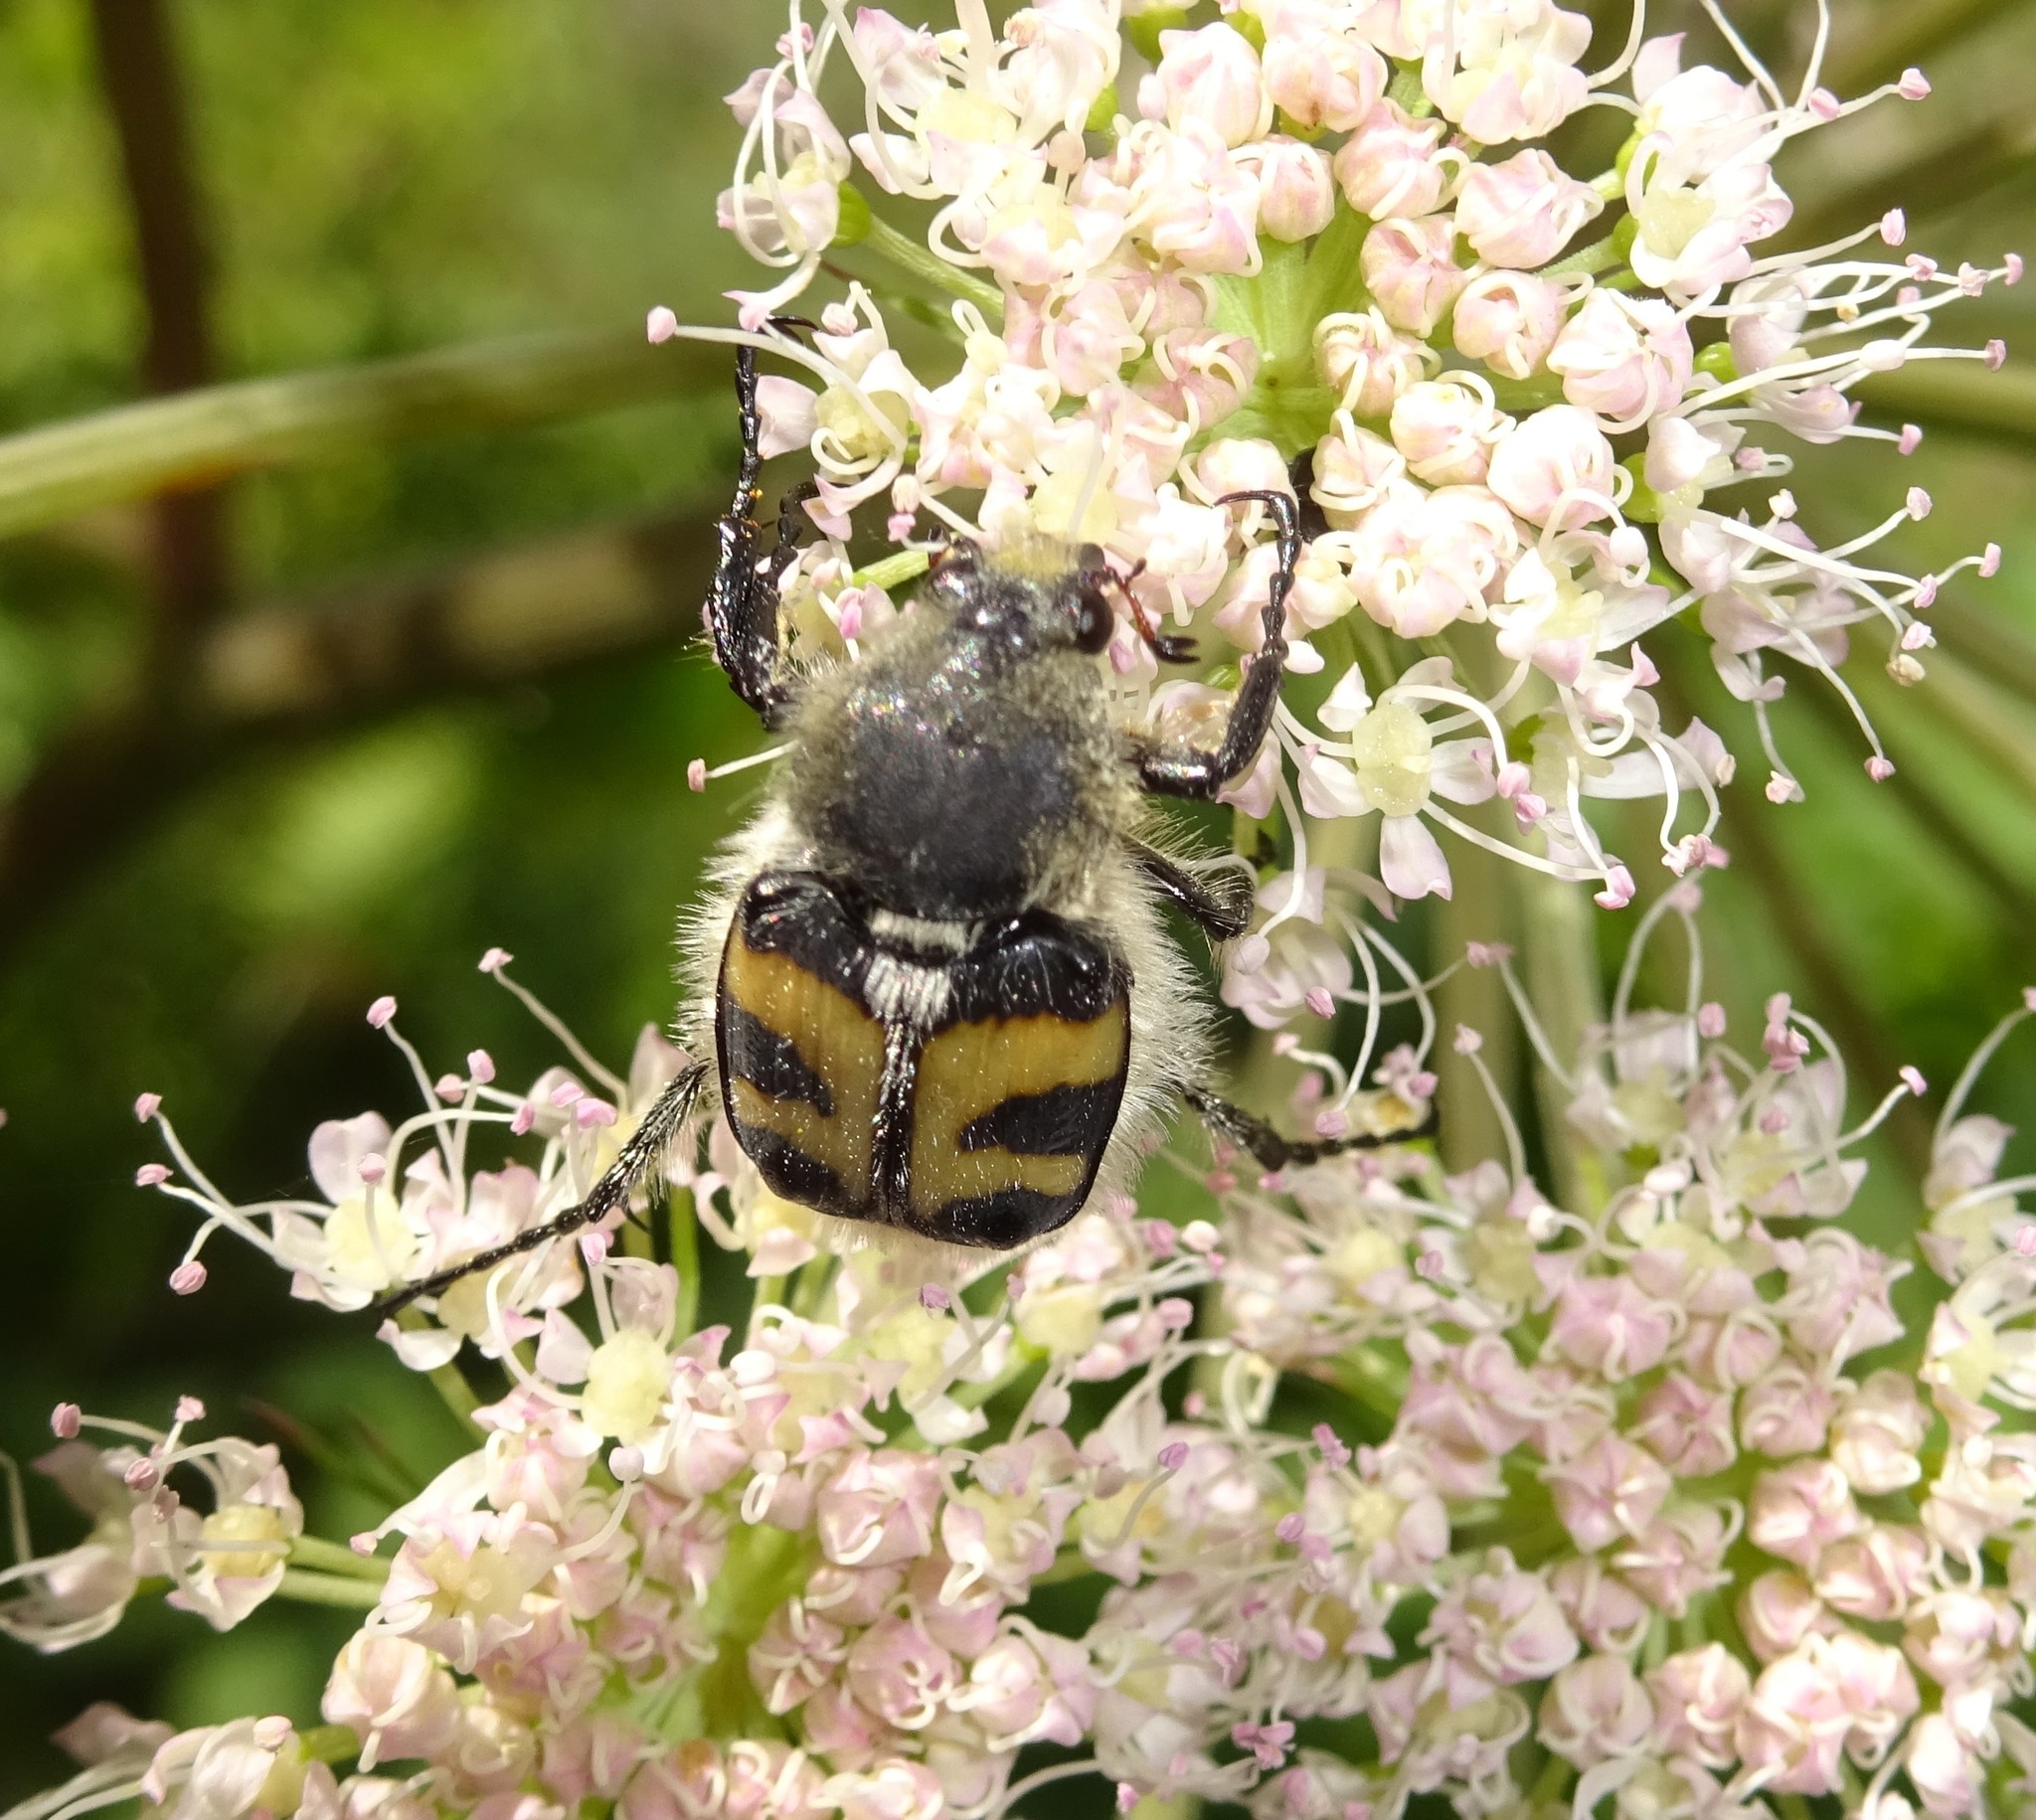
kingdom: Animalia
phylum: Arthropoda
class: Insecta
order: Coleoptera
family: Scarabaeidae
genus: Trichius
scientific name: Trichius fasciatus
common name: Bee beetle
